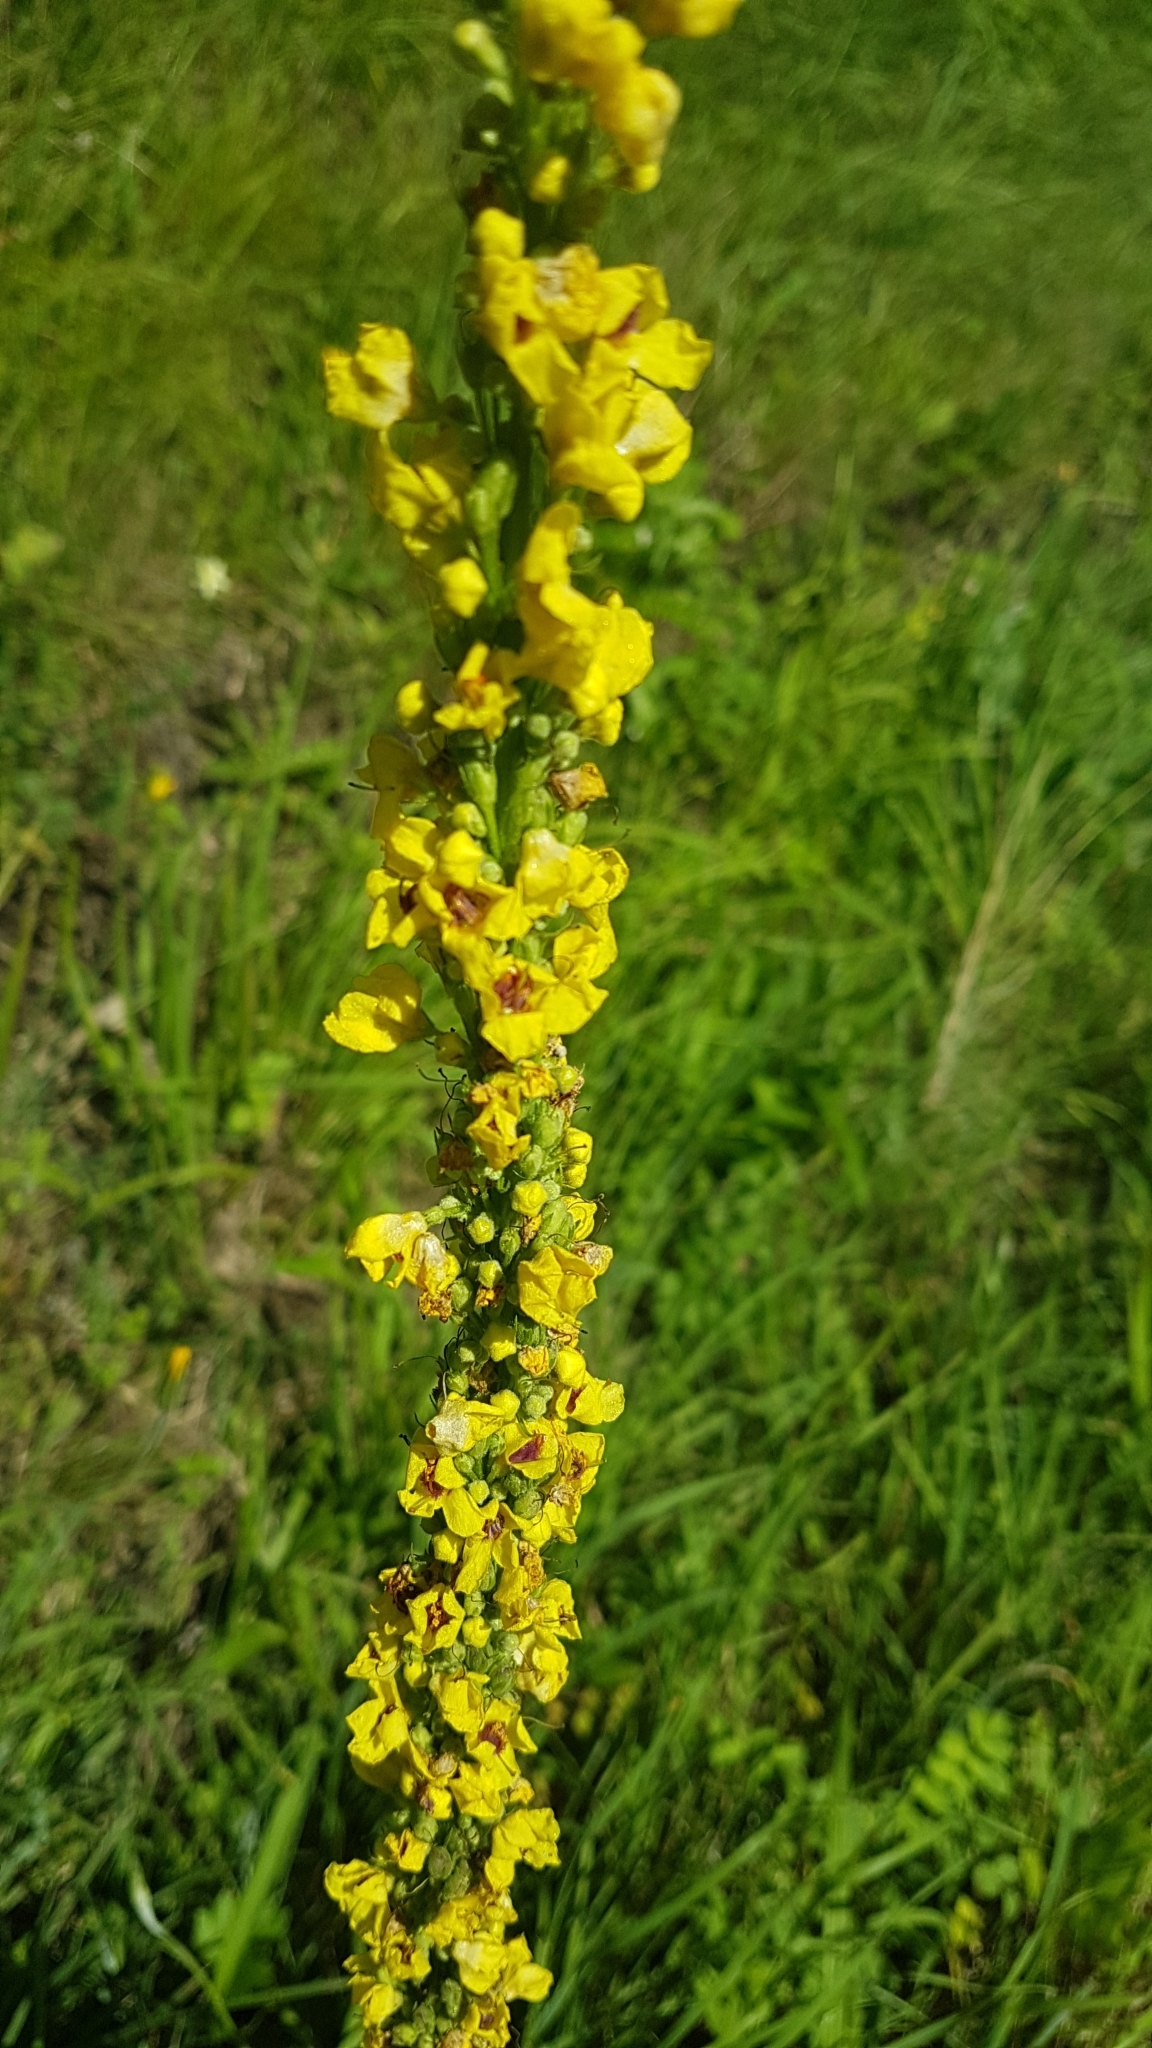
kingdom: Plantae
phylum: Tracheophyta
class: Magnoliopsida
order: Lamiales
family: Scrophulariaceae
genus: Verbascum
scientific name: Verbascum nigrum
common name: Dark mullein
